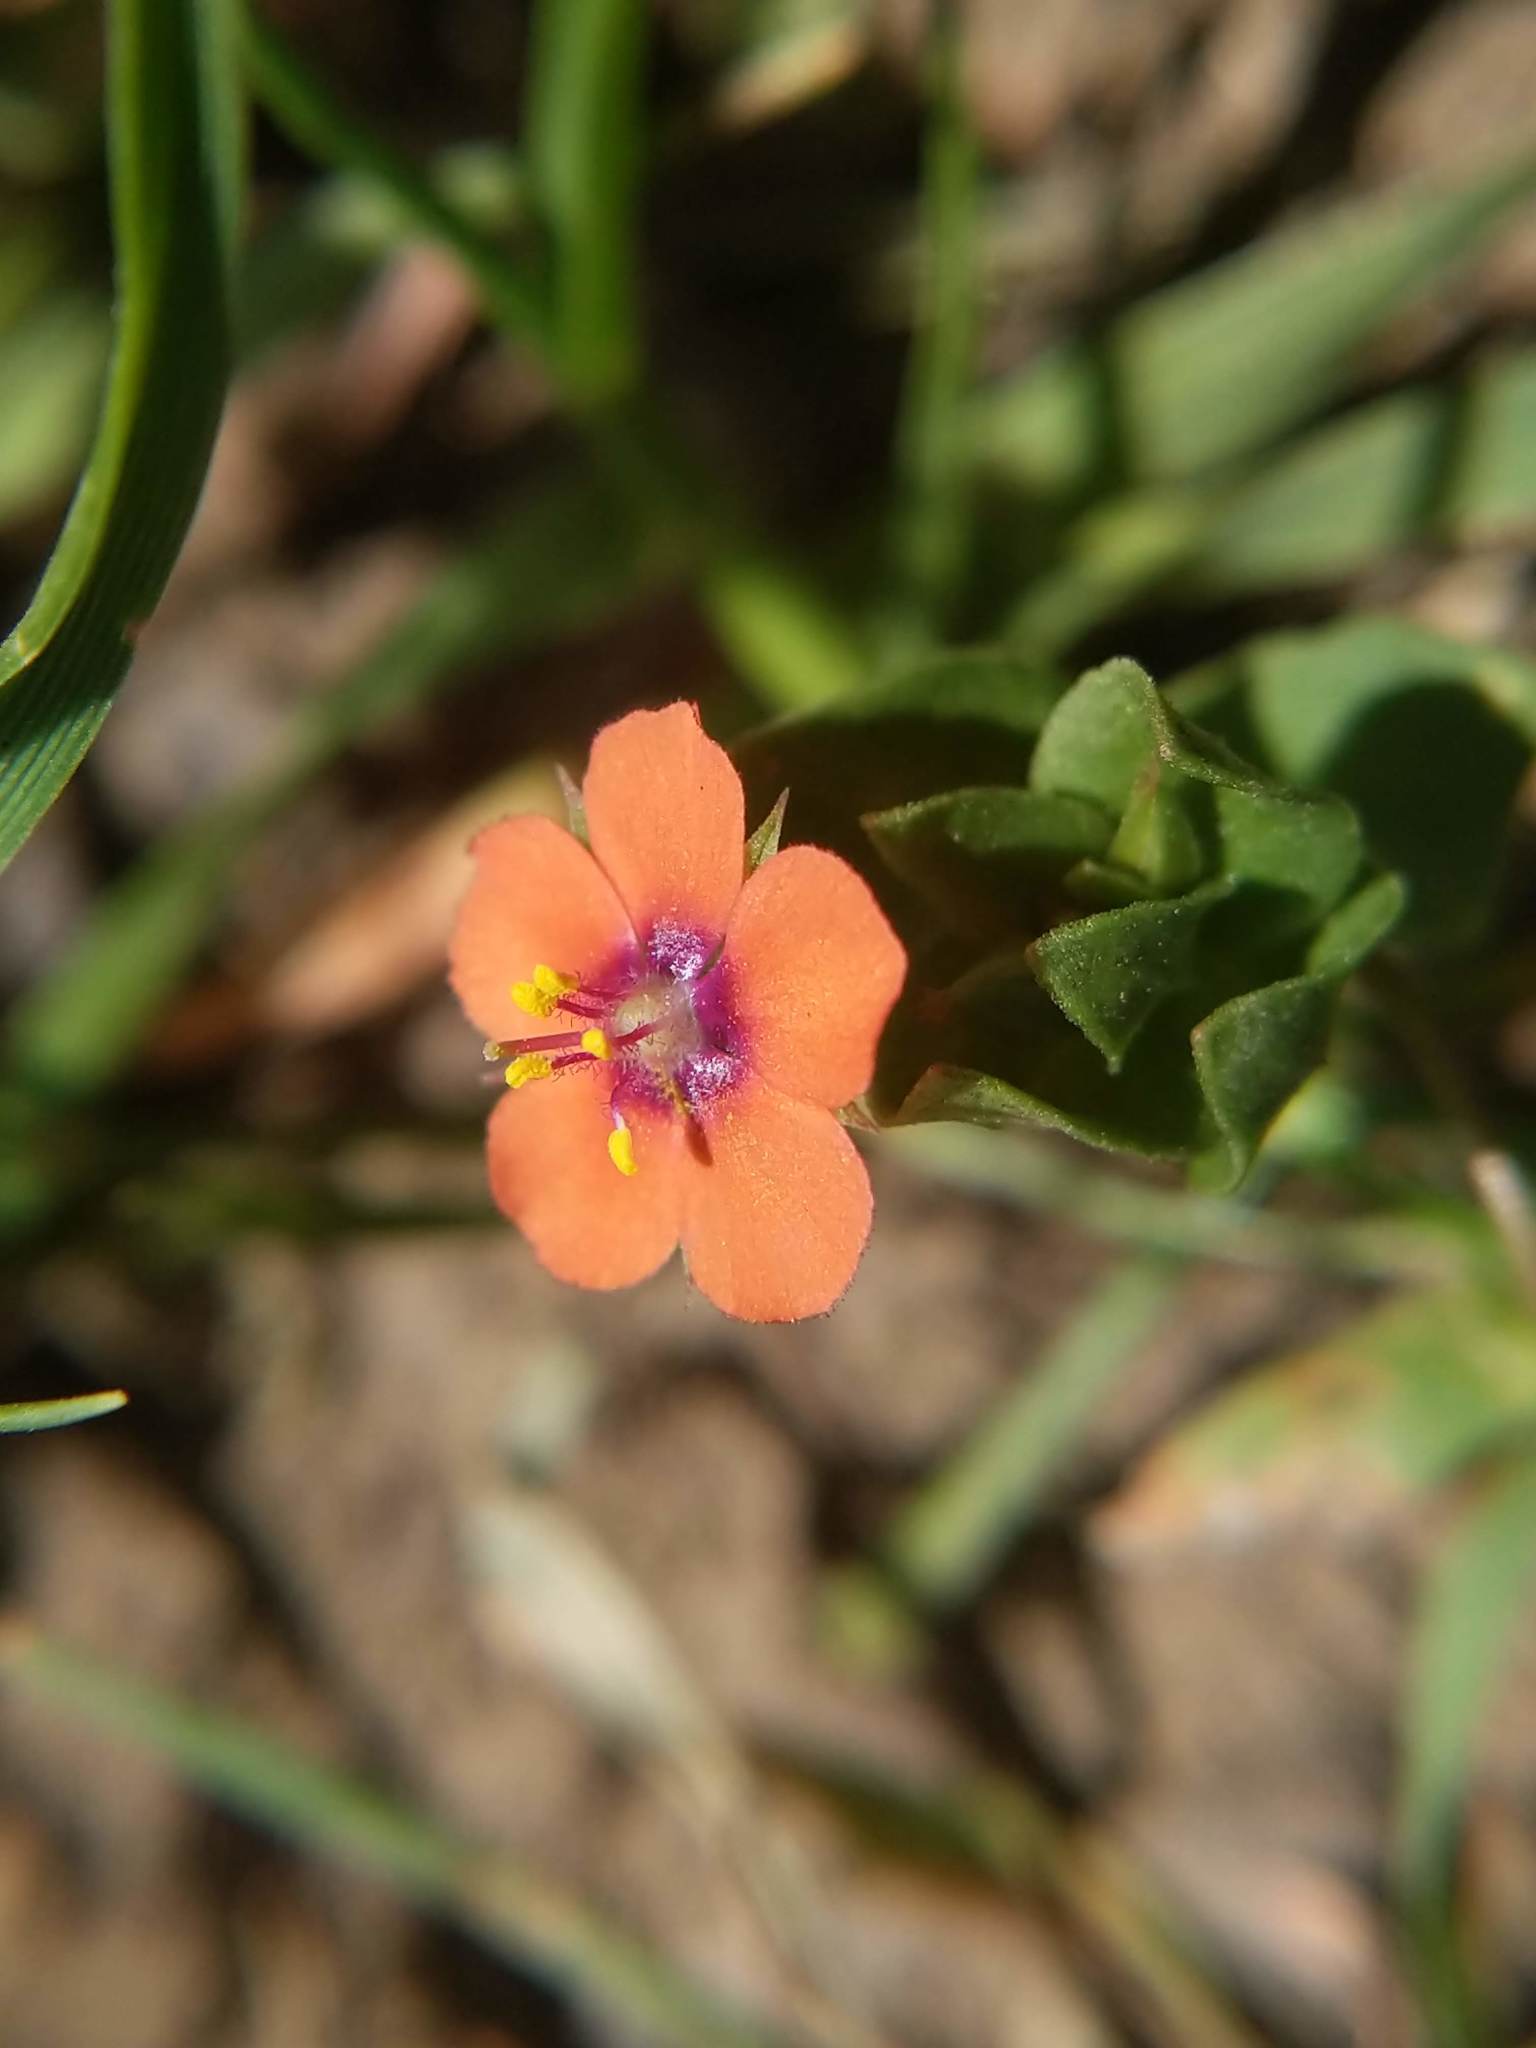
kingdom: Plantae
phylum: Tracheophyta
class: Magnoliopsida
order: Ericales
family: Primulaceae
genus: Lysimachia
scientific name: Lysimachia arvensis
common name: Scarlet pimpernel
